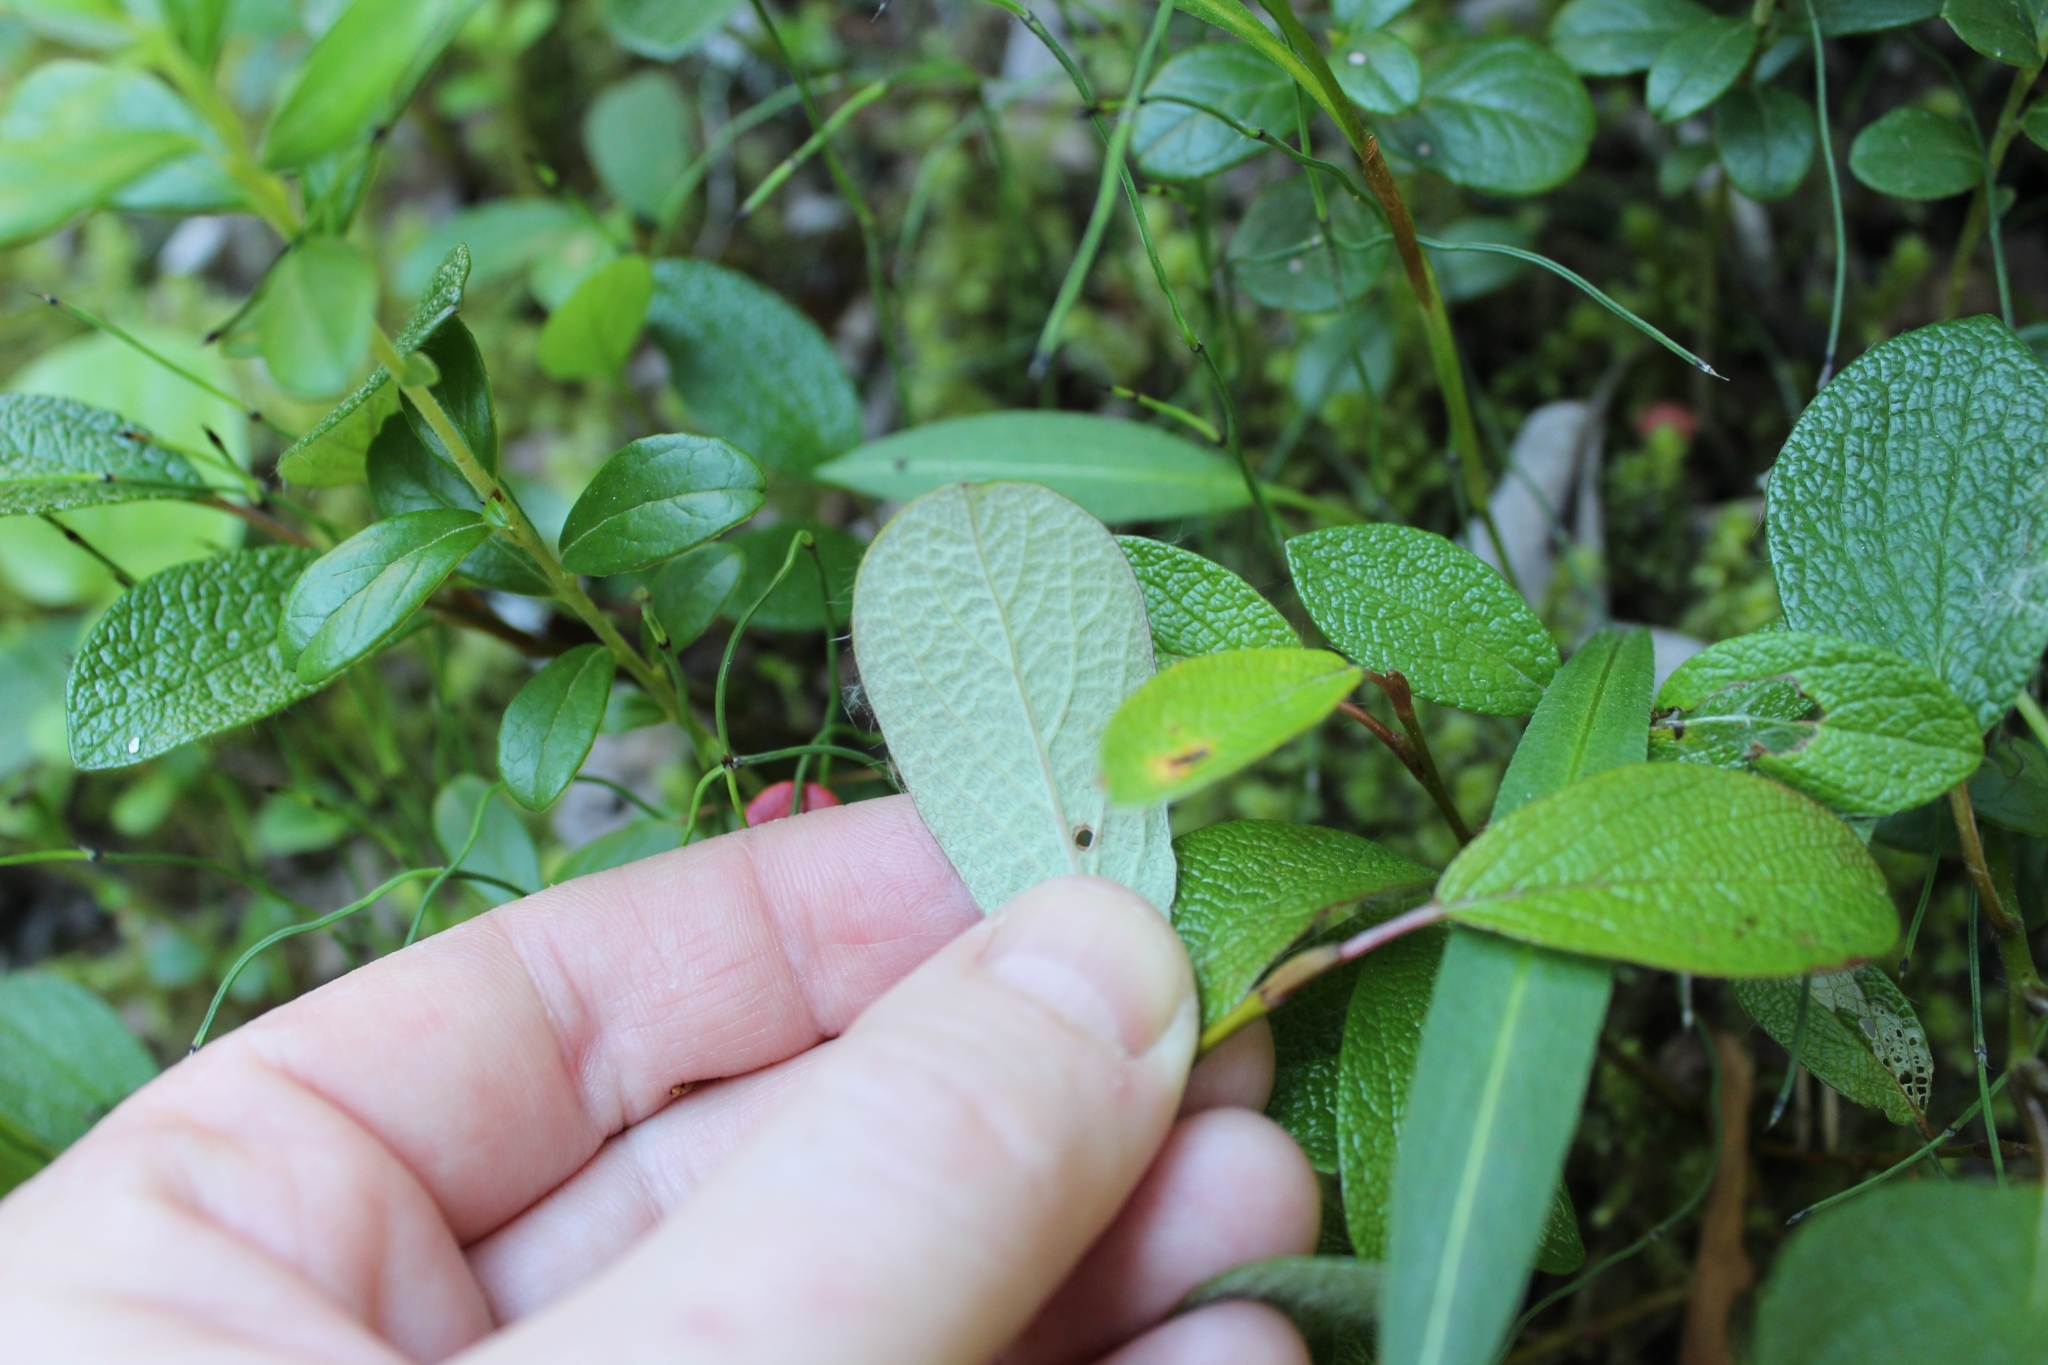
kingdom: Plantae
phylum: Tracheophyta
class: Magnoliopsida
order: Malpighiales
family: Salicaceae
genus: Salix
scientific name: Salix reticulata
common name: Net-leaved willow
